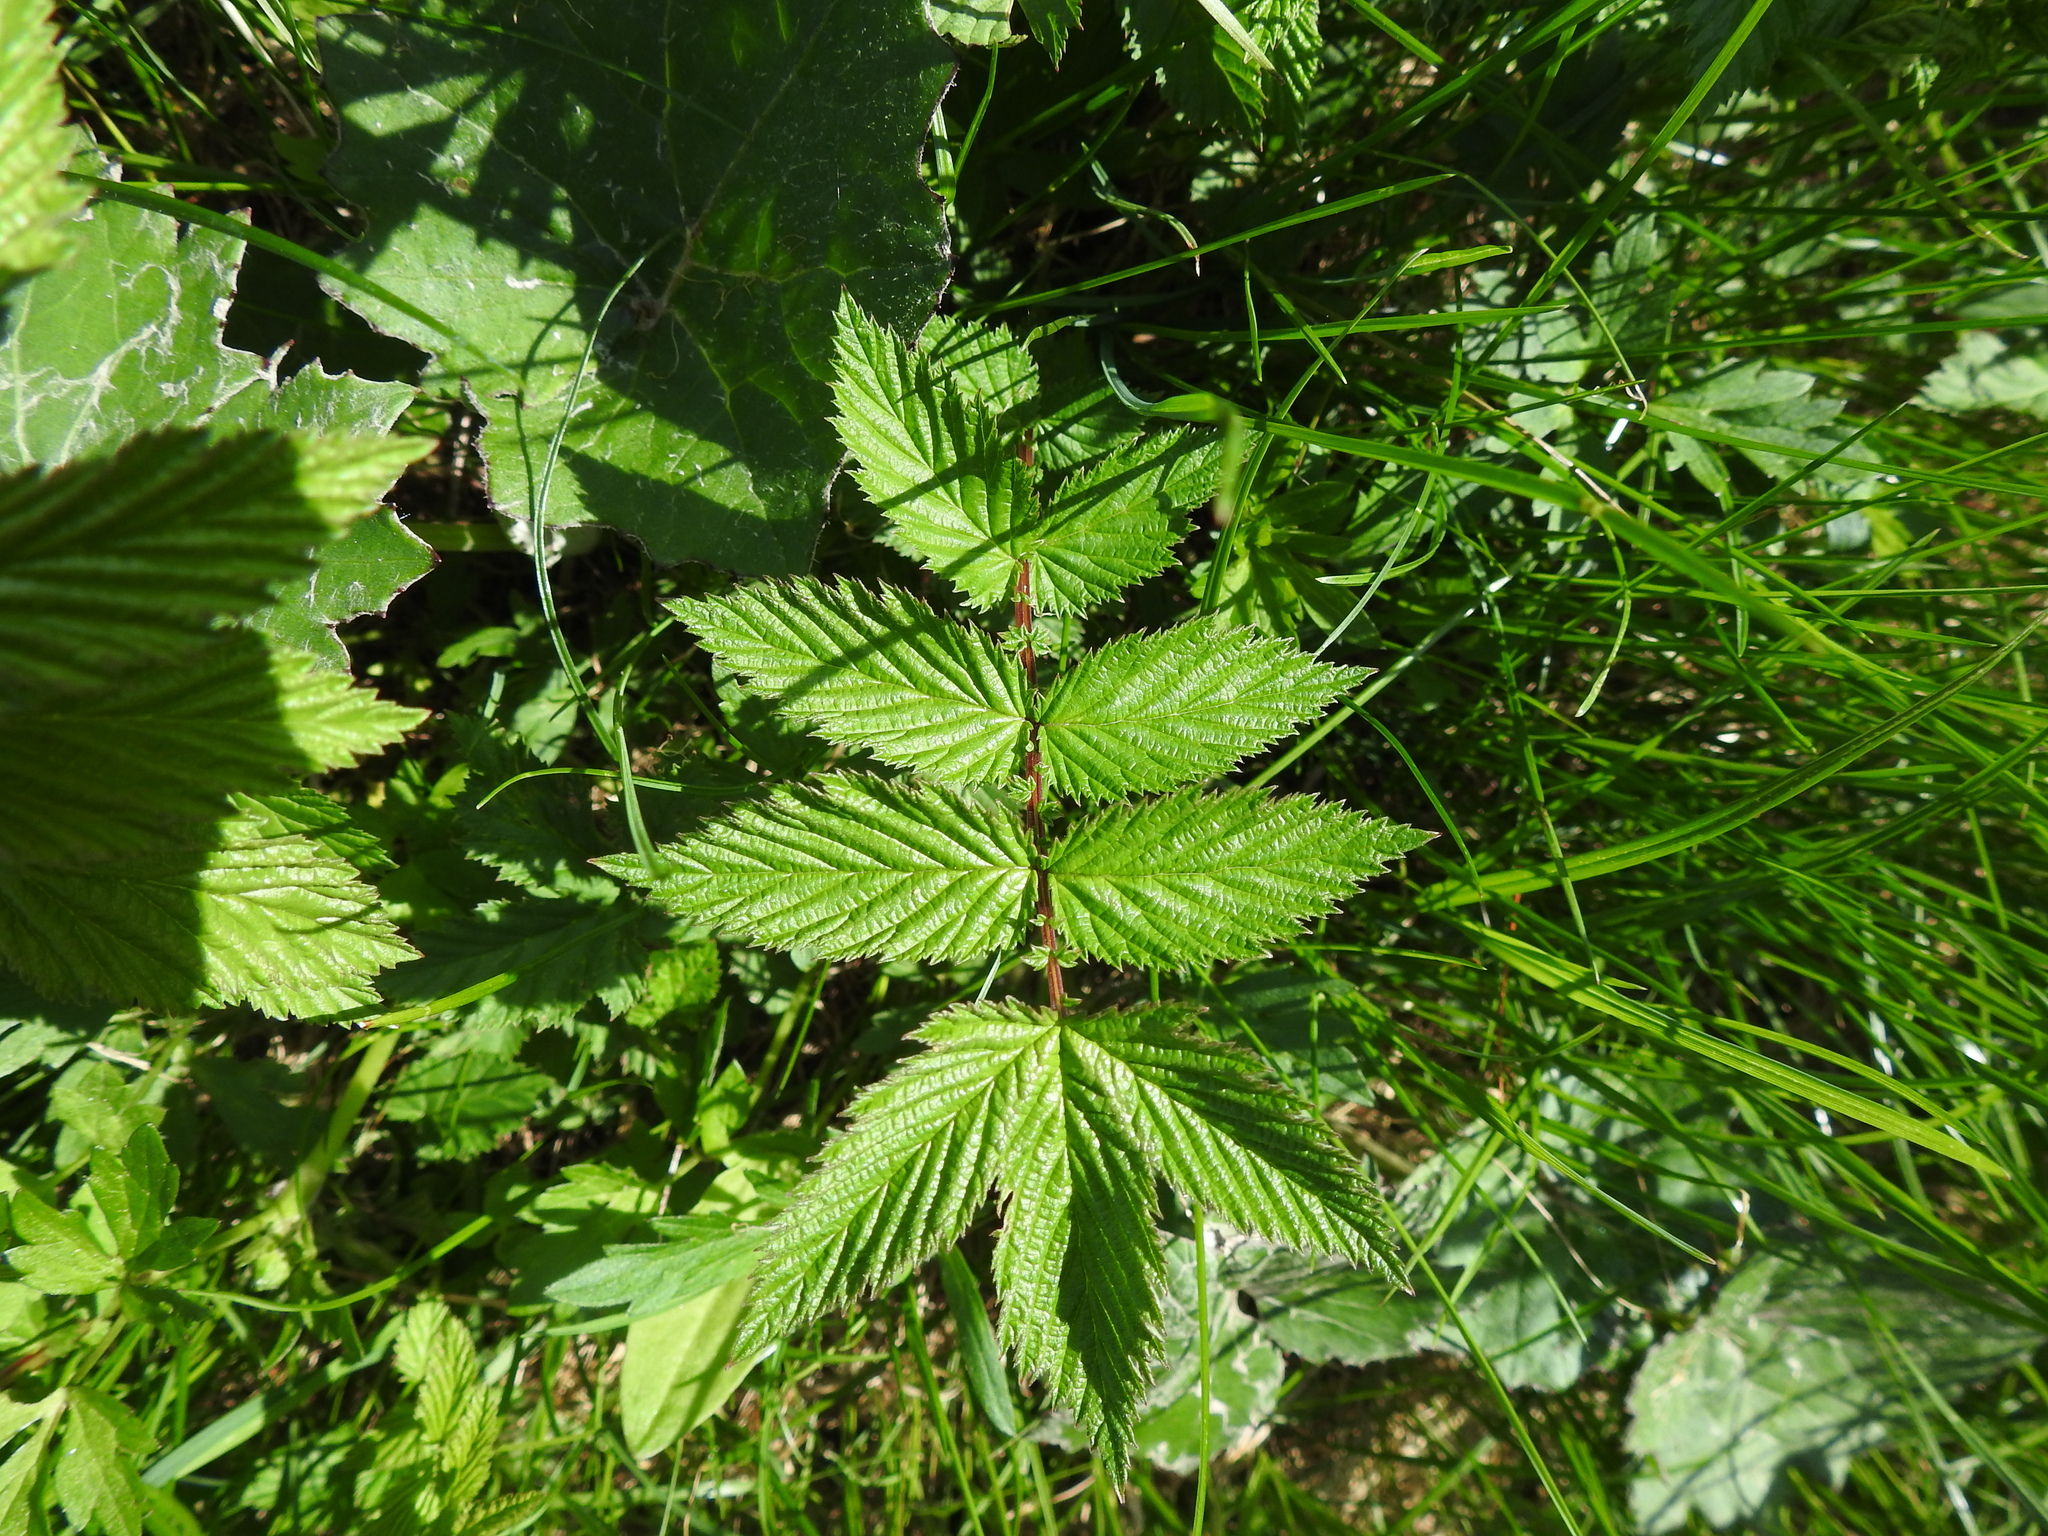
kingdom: Plantae
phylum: Tracheophyta
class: Magnoliopsida
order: Rosales
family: Rosaceae
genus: Filipendula
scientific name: Filipendula ulmaria
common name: Meadowsweet
